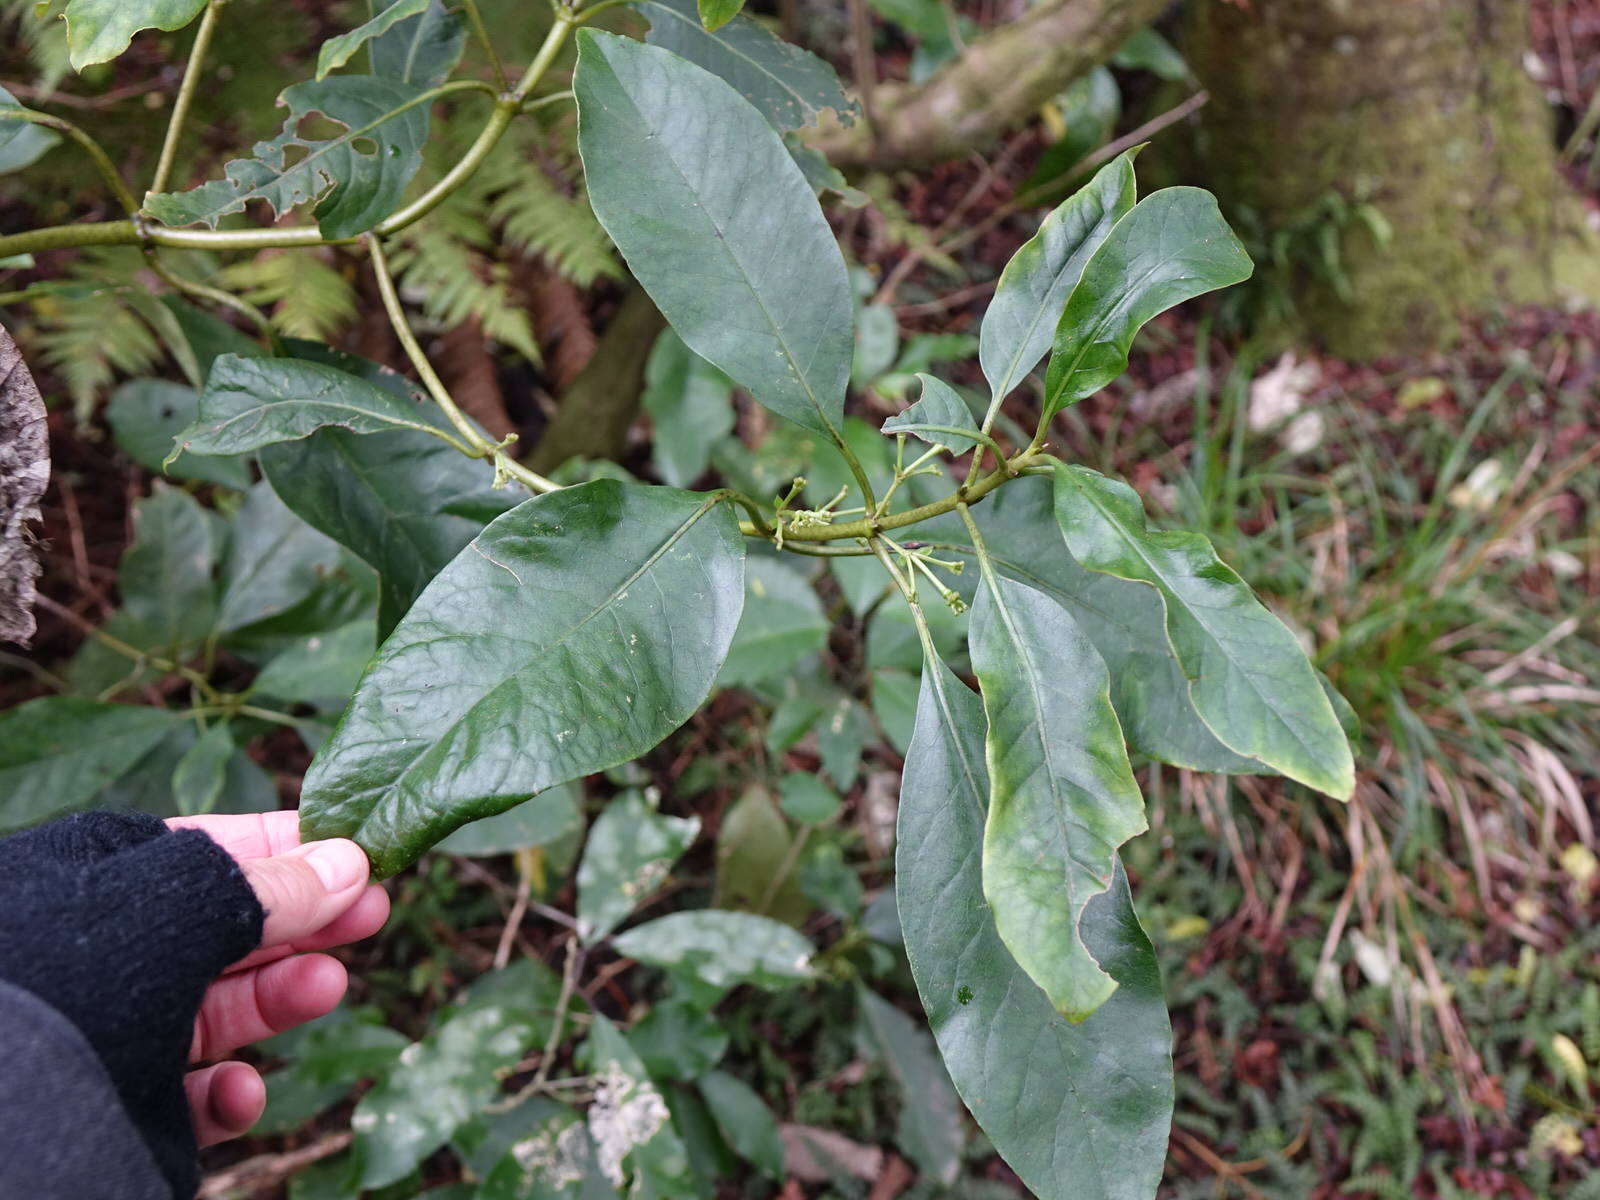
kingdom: Plantae
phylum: Tracheophyta
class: Magnoliopsida
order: Gentianales
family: Rubiaceae
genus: Coprosma
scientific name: Coprosma autumnalis
